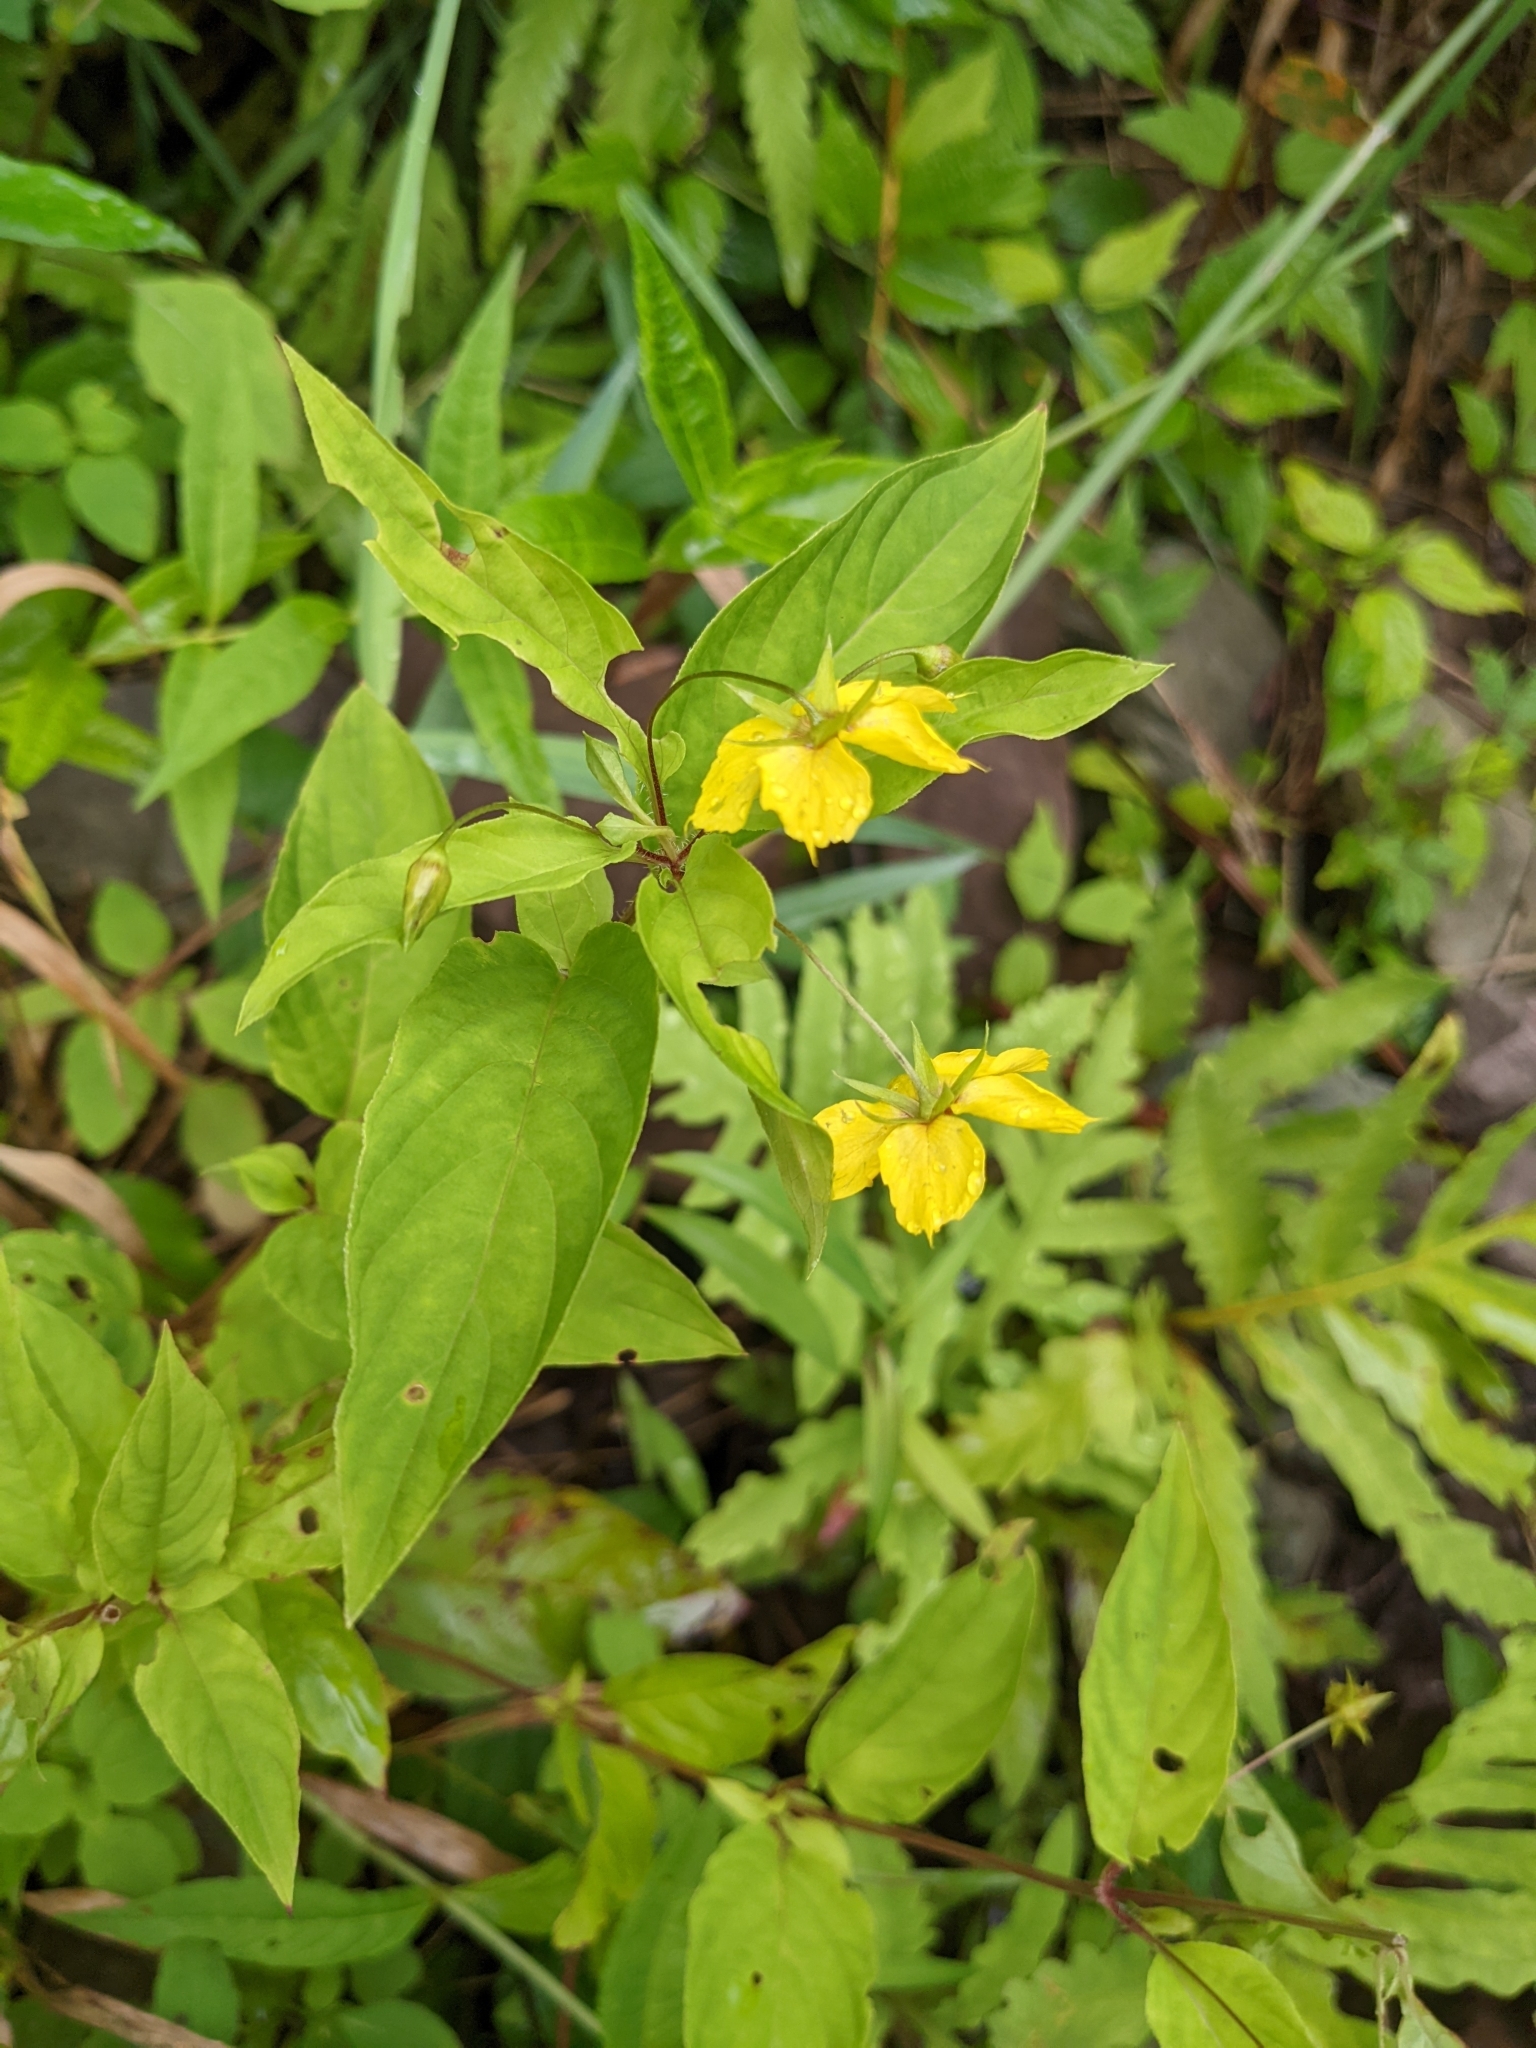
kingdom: Plantae
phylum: Tracheophyta
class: Magnoliopsida
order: Ericales
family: Primulaceae
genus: Lysimachia
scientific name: Lysimachia ciliata
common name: Fringed loosestrife
